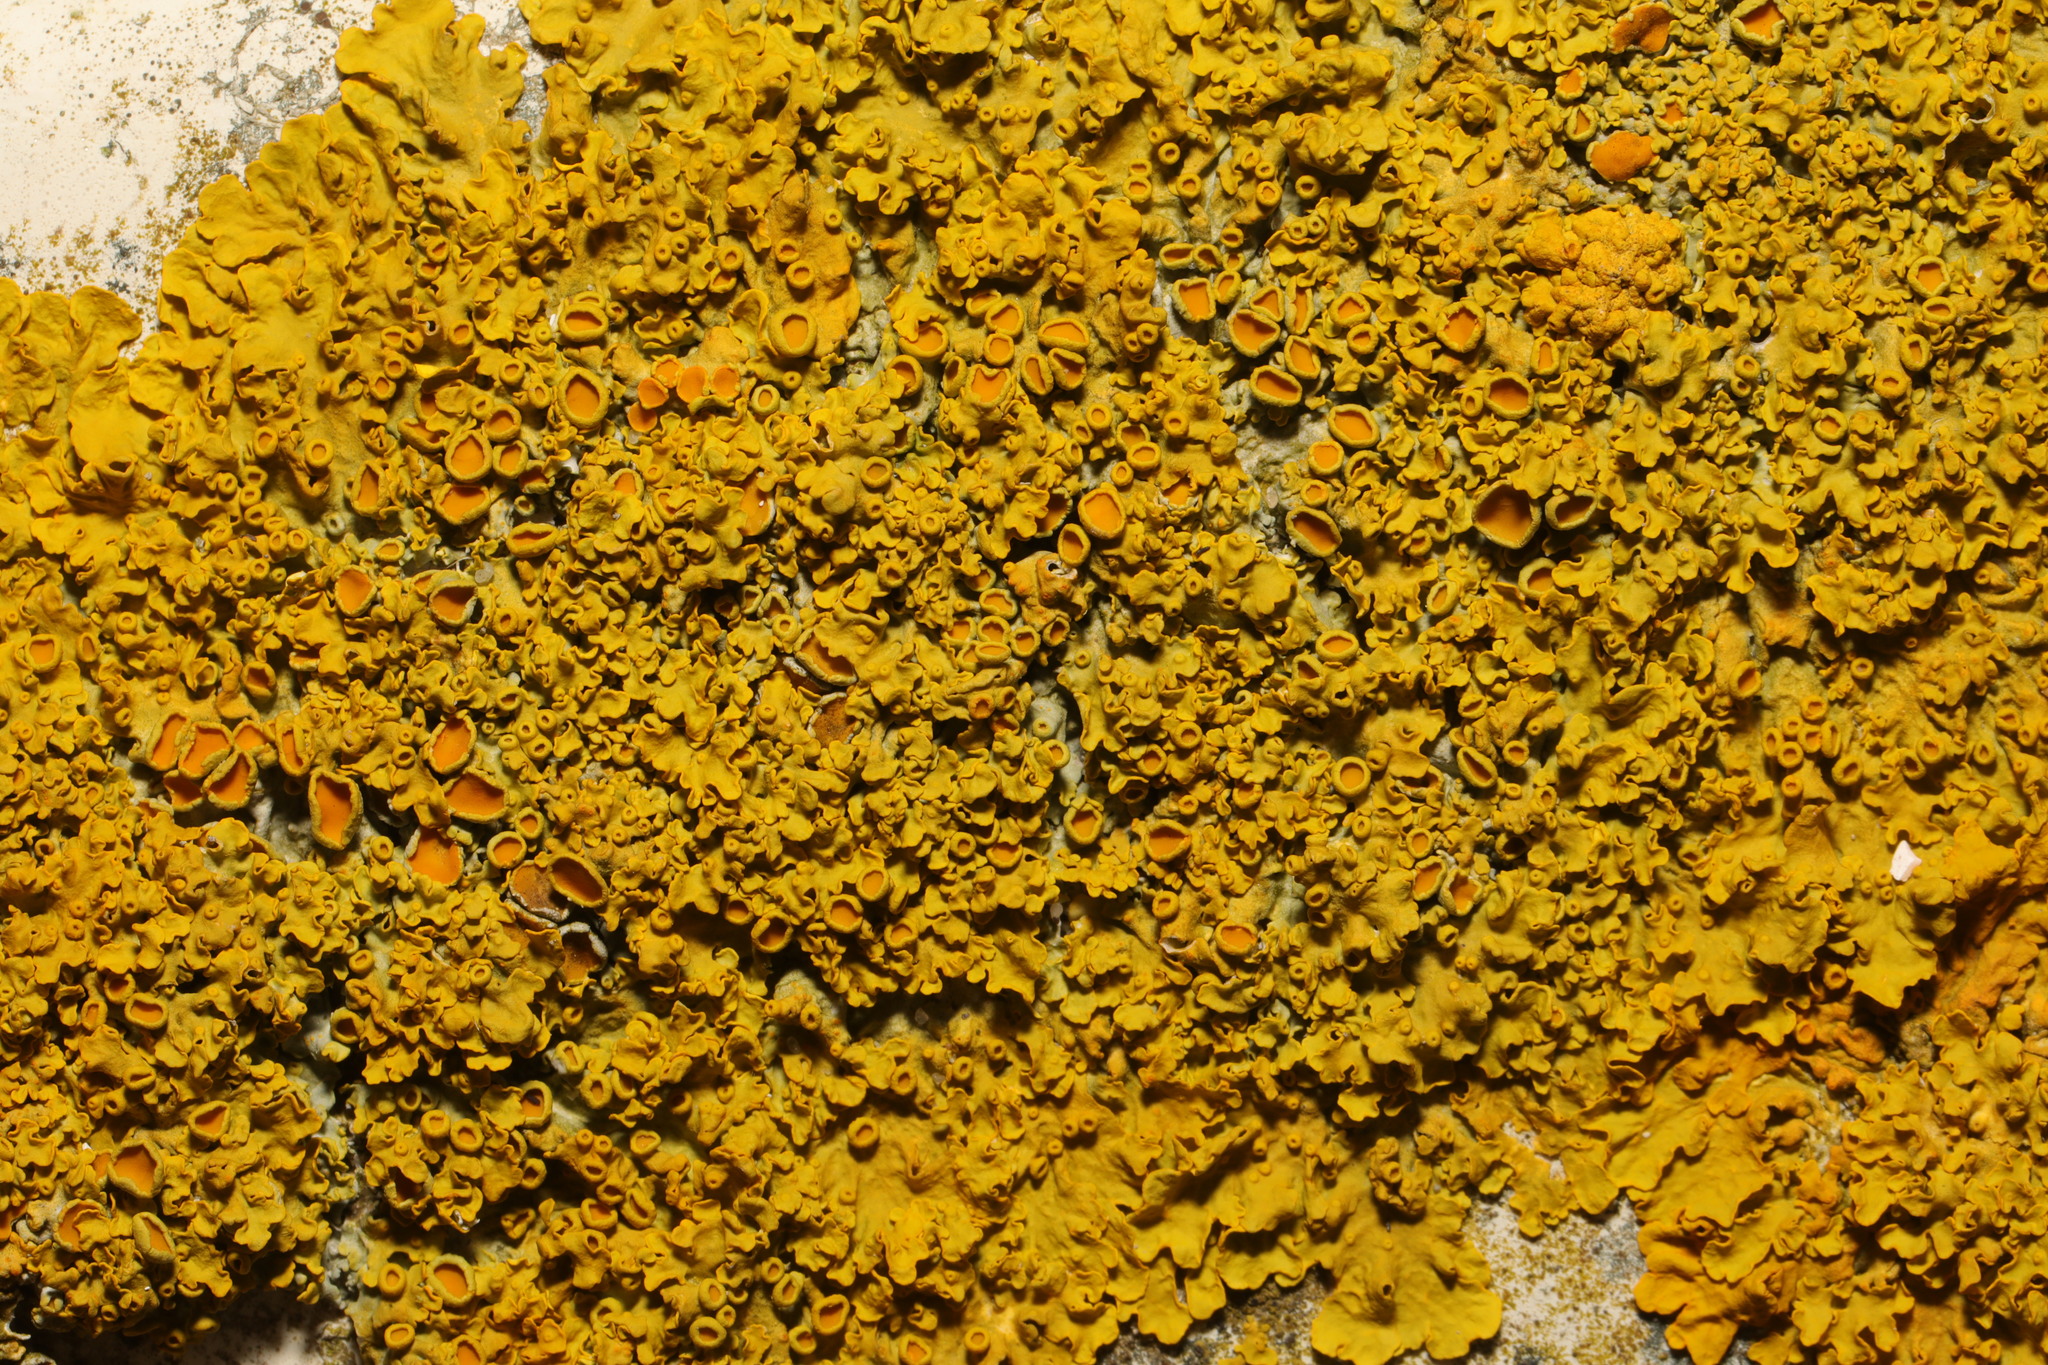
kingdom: Fungi
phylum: Ascomycota
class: Lecanoromycetes
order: Teloschistales
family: Teloschistaceae
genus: Xanthoria
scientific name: Xanthoria parietina
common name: Common orange lichen
